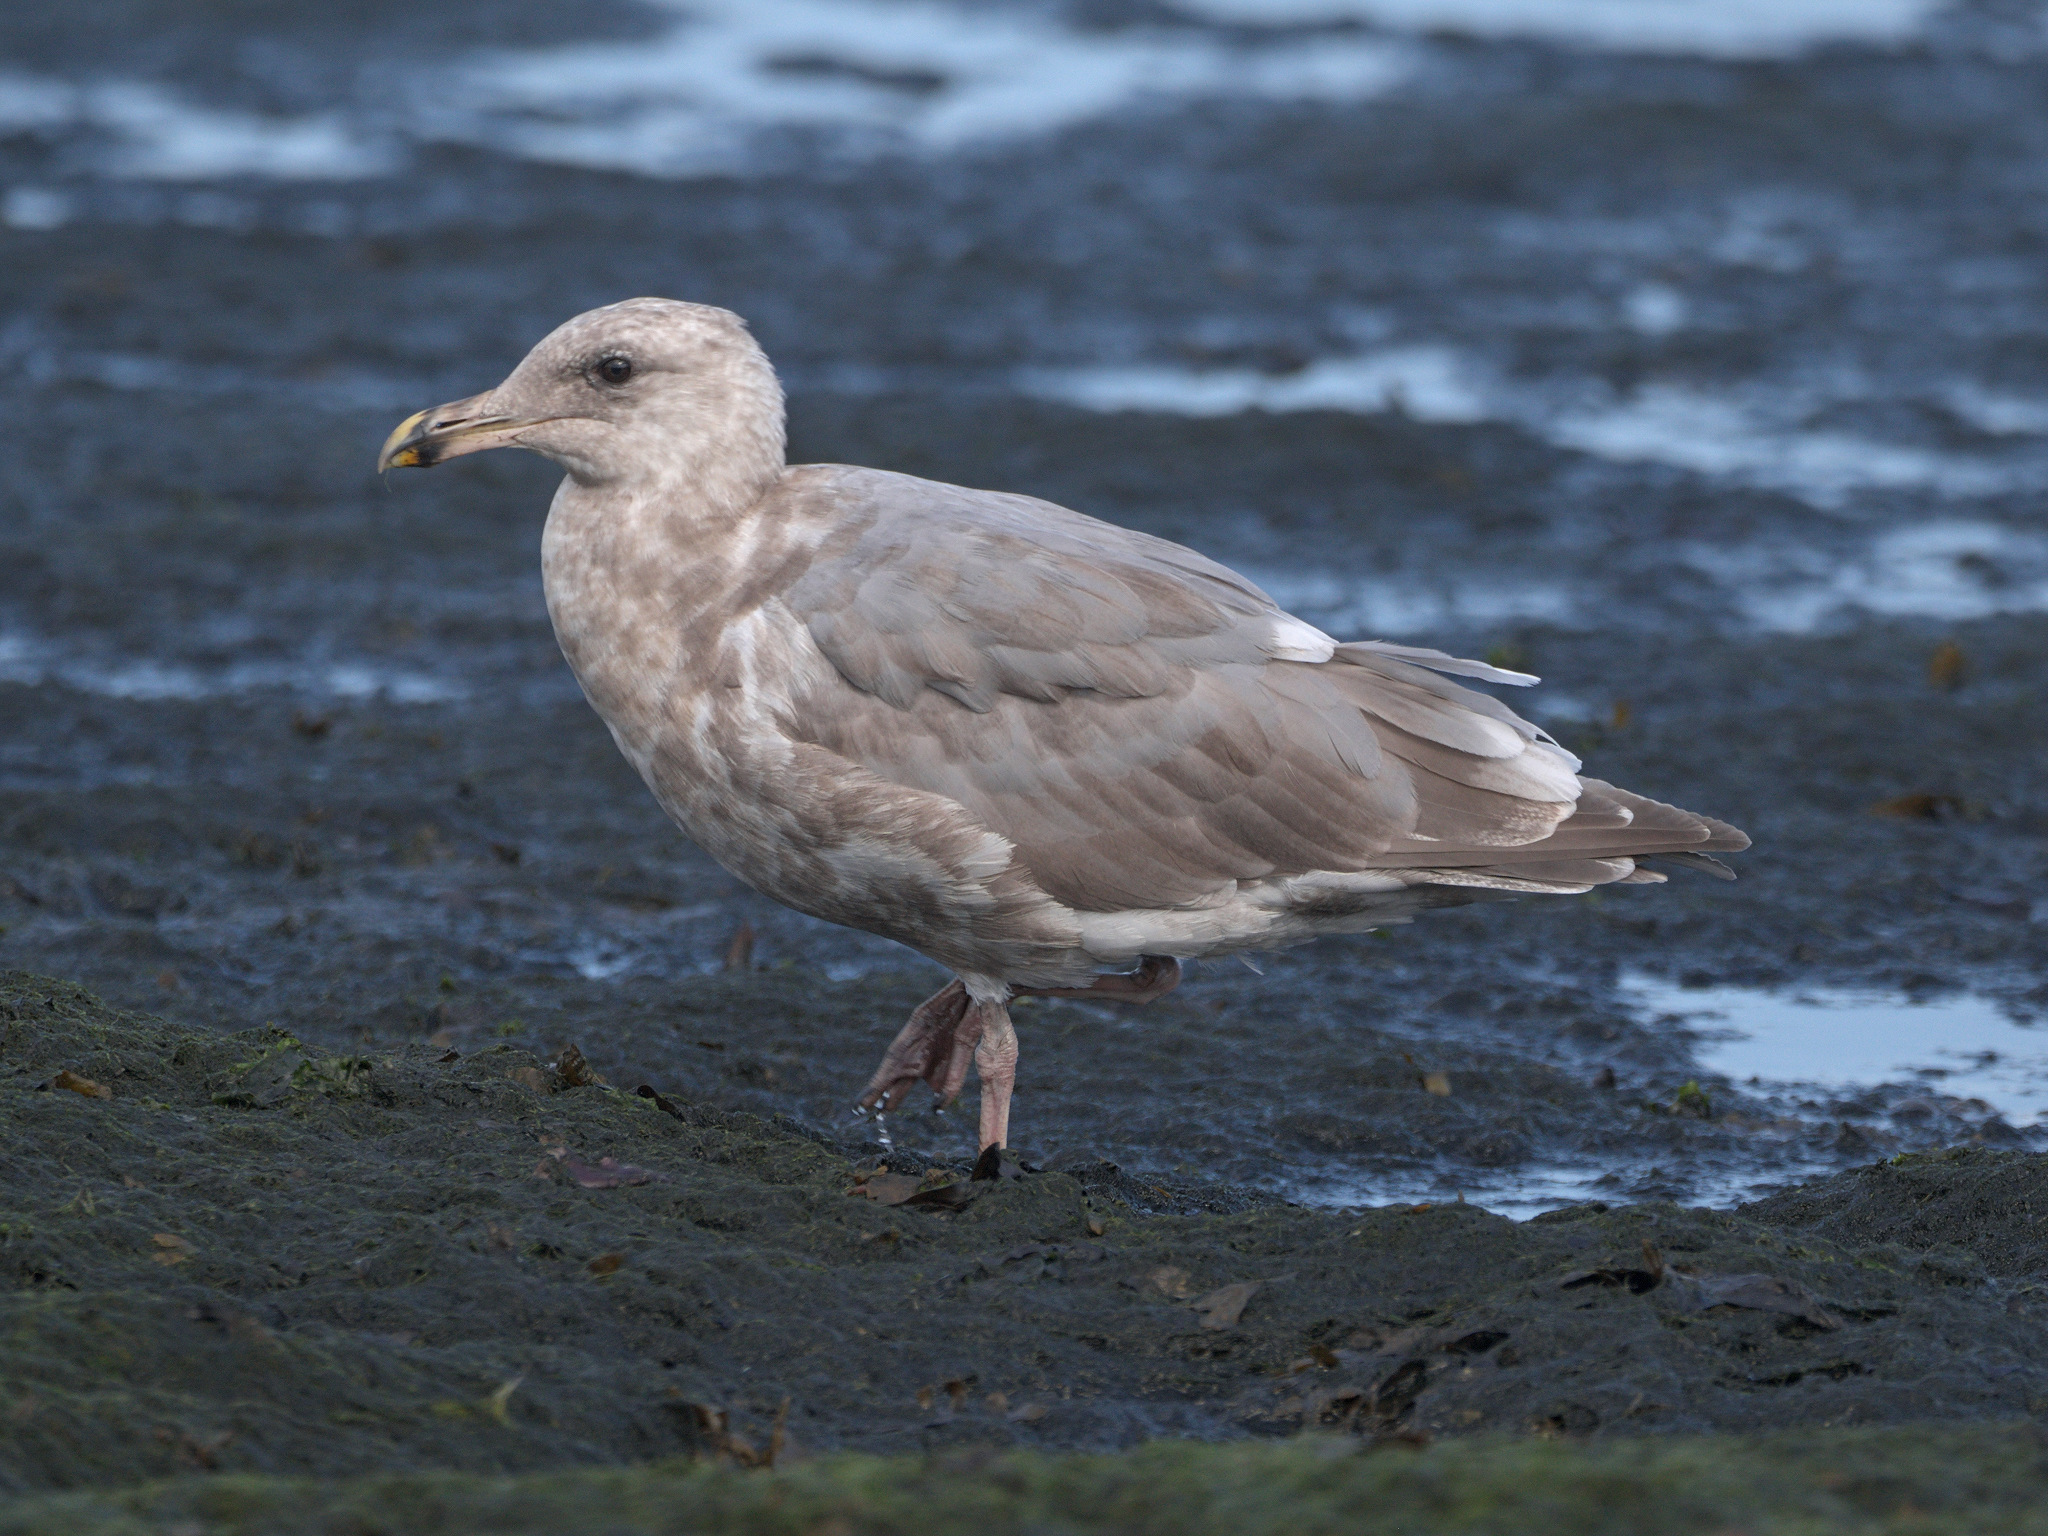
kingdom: Animalia
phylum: Chordata
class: Aves
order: Charadriiformes
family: Laridae
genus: Larus
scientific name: Larus
